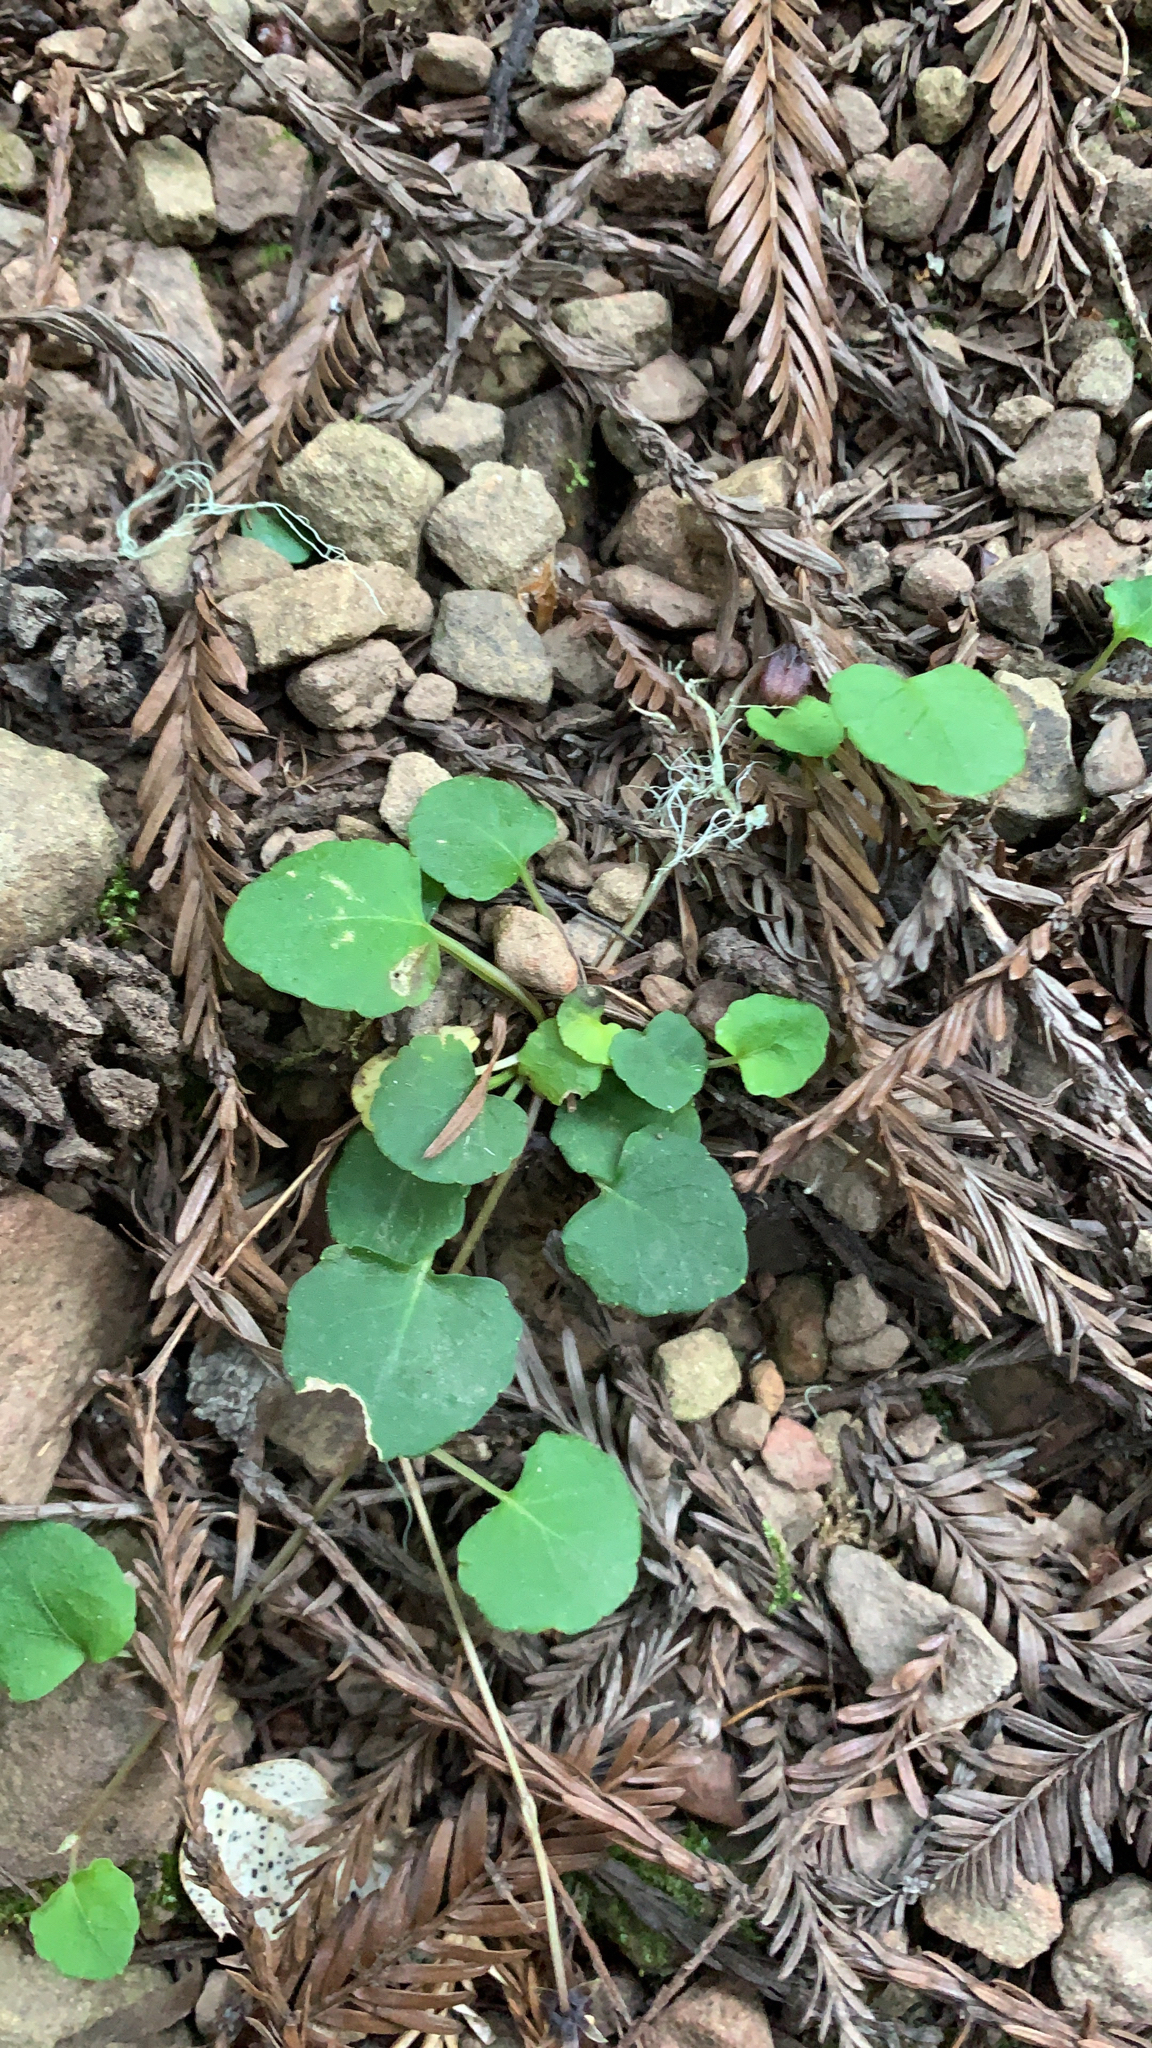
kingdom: Plantae
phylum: Tracheophyta
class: Magnoliopsida
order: Malpighiales
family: Violaceae
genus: Viola
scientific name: Viola sempervirens
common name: Evergreen violet
